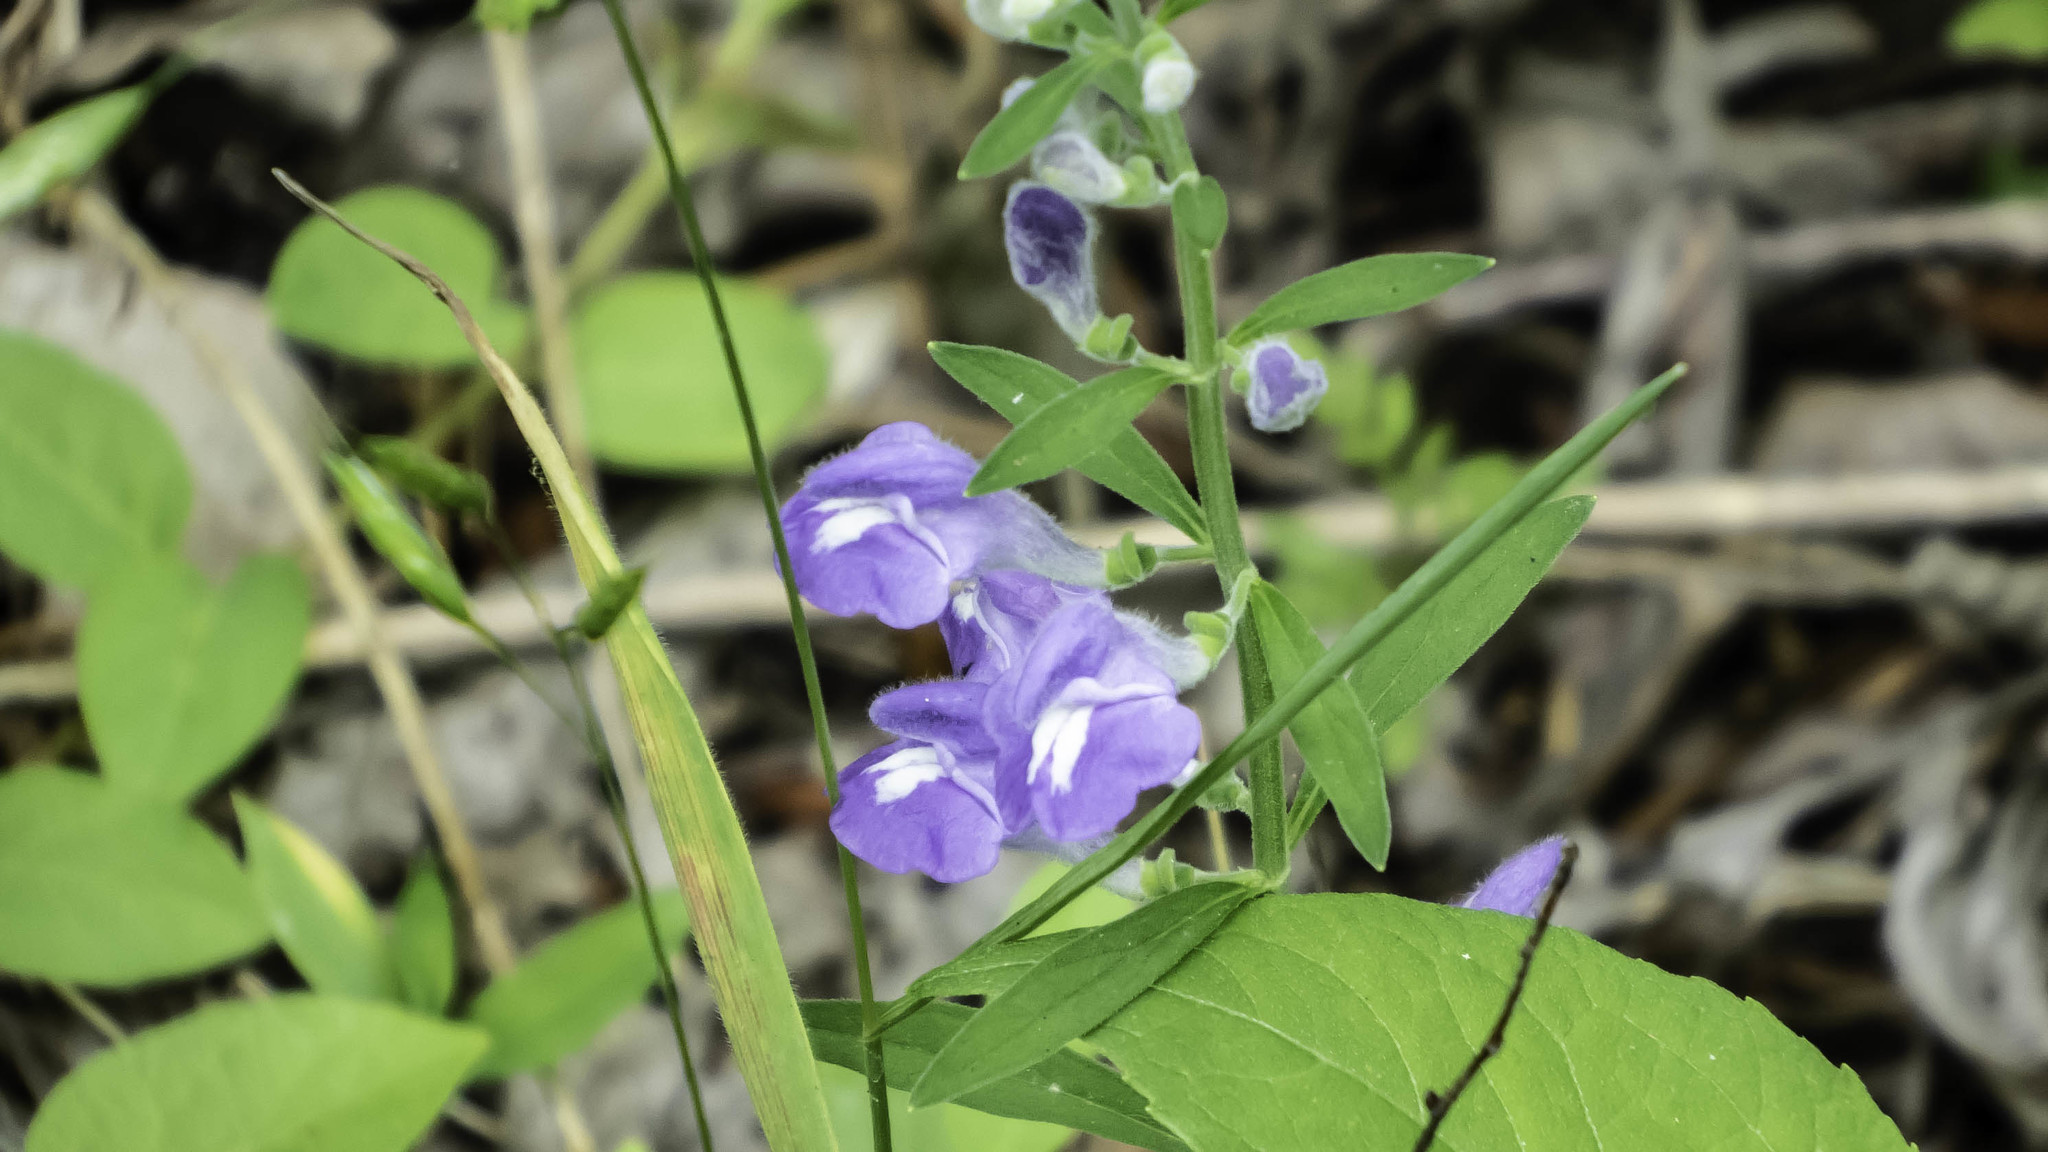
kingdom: Plantae
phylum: Tracheophyta
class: Magnoliopsida
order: Lamiales
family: Lamiaceae
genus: Scutellaria
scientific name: Scutellaria integrifolia
